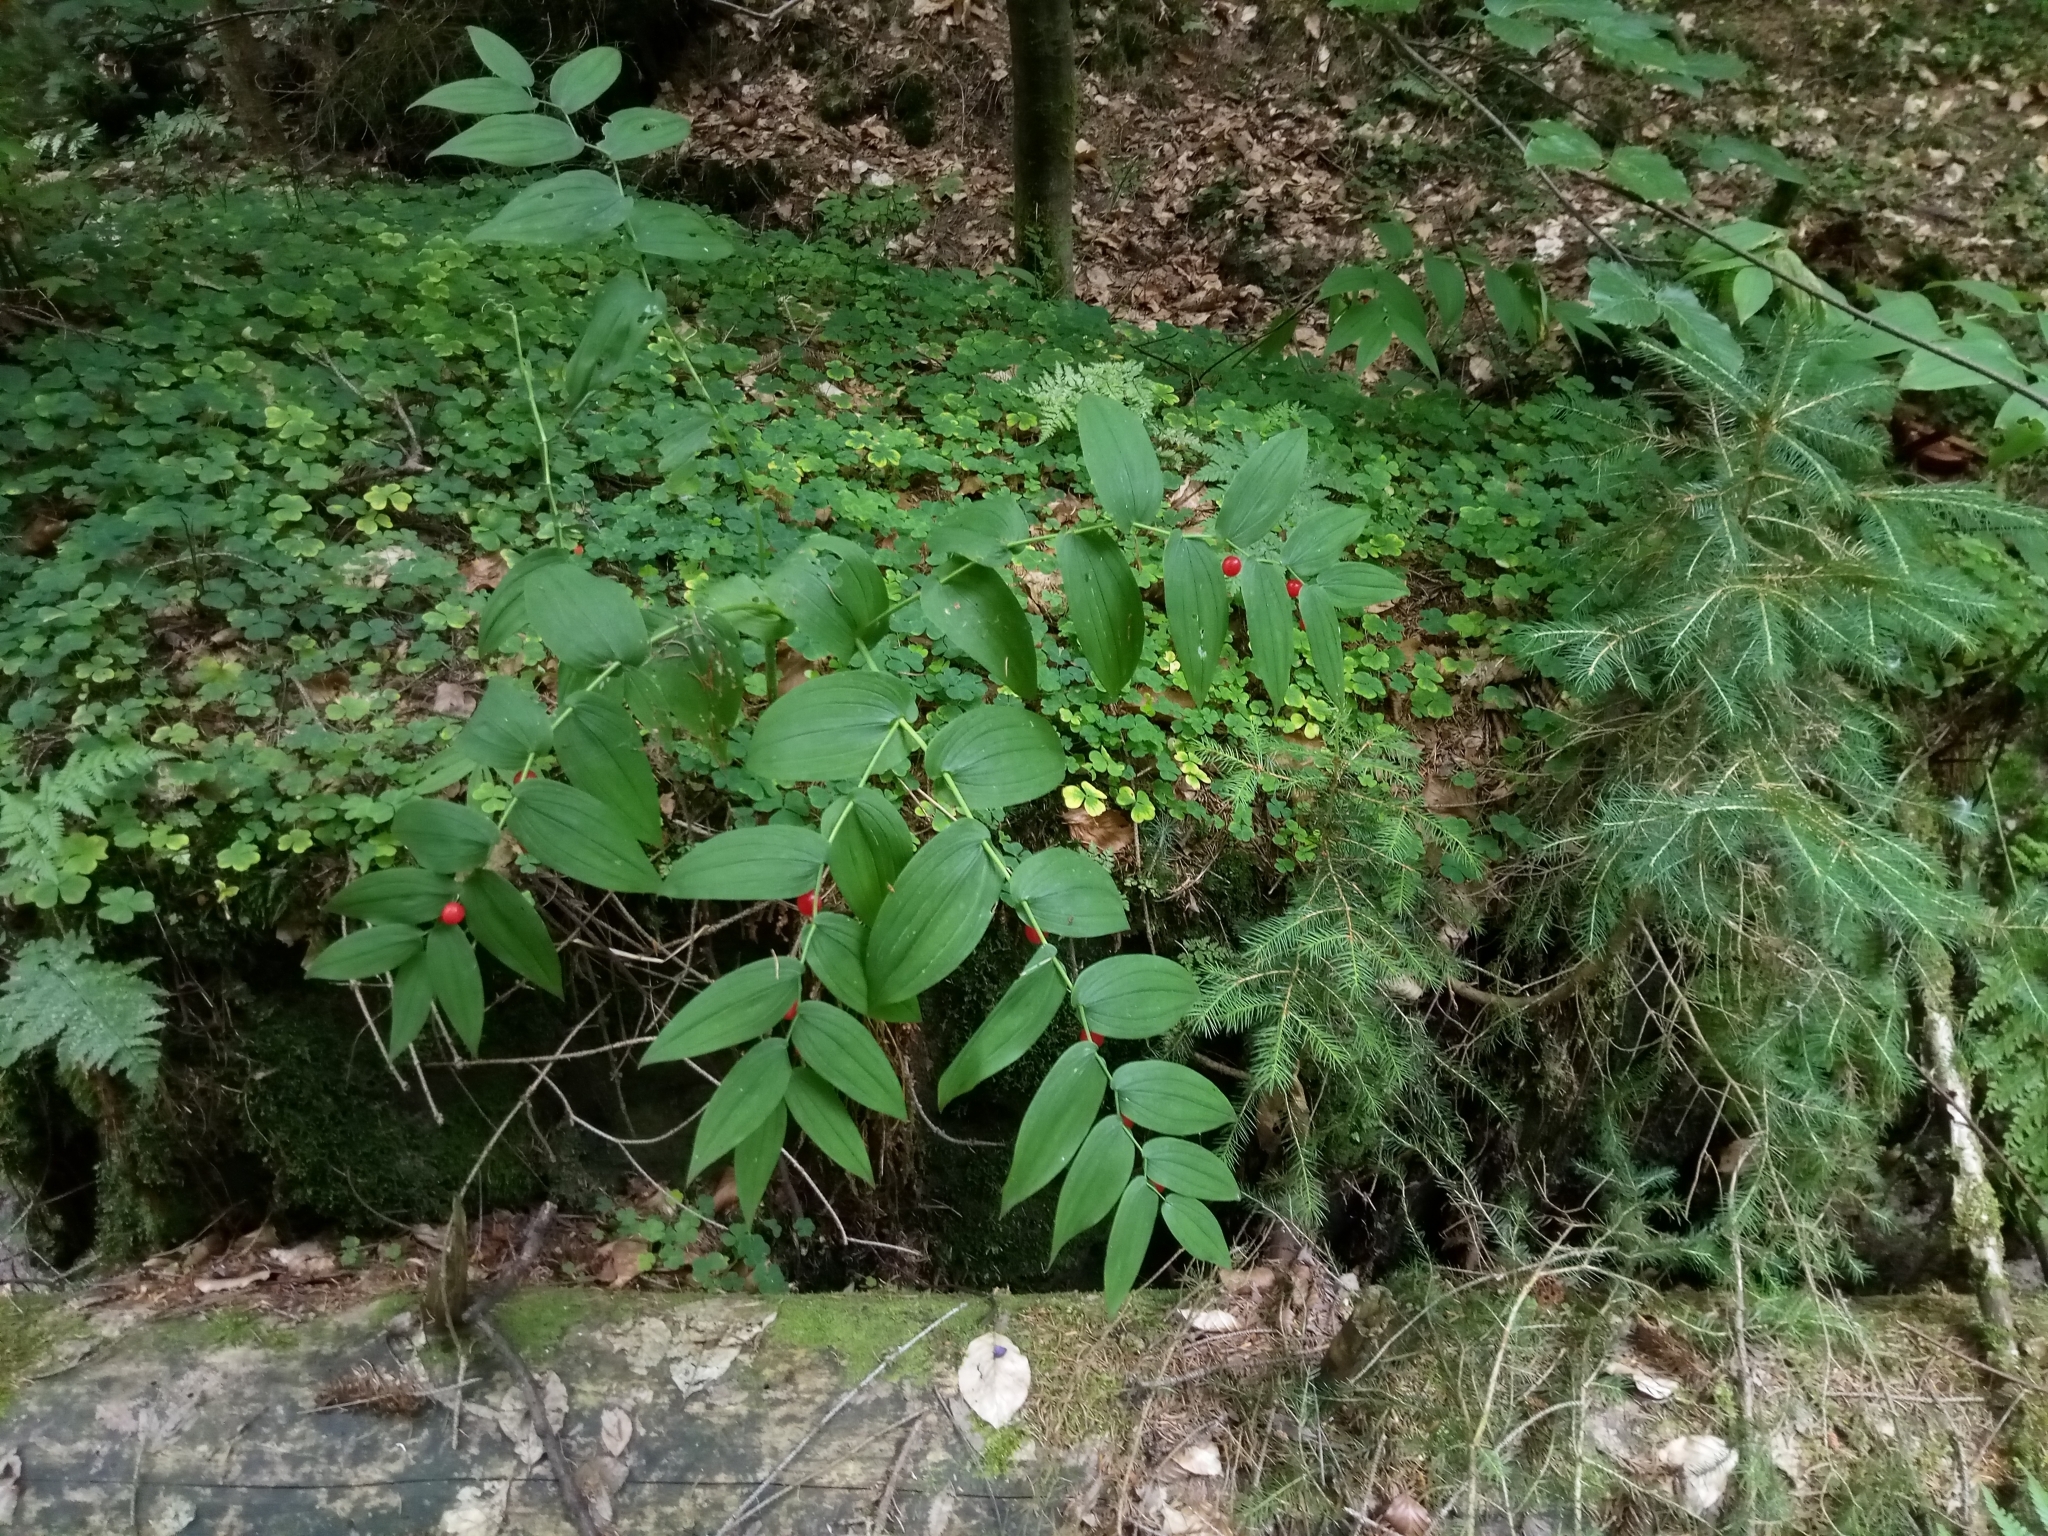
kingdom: Plantae
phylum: Tracheophyta
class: Liliopsida
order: Liliales
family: Liliaceae
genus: Streptopus
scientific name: Streptopus amplexifolius
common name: Clasp twisted stalk
